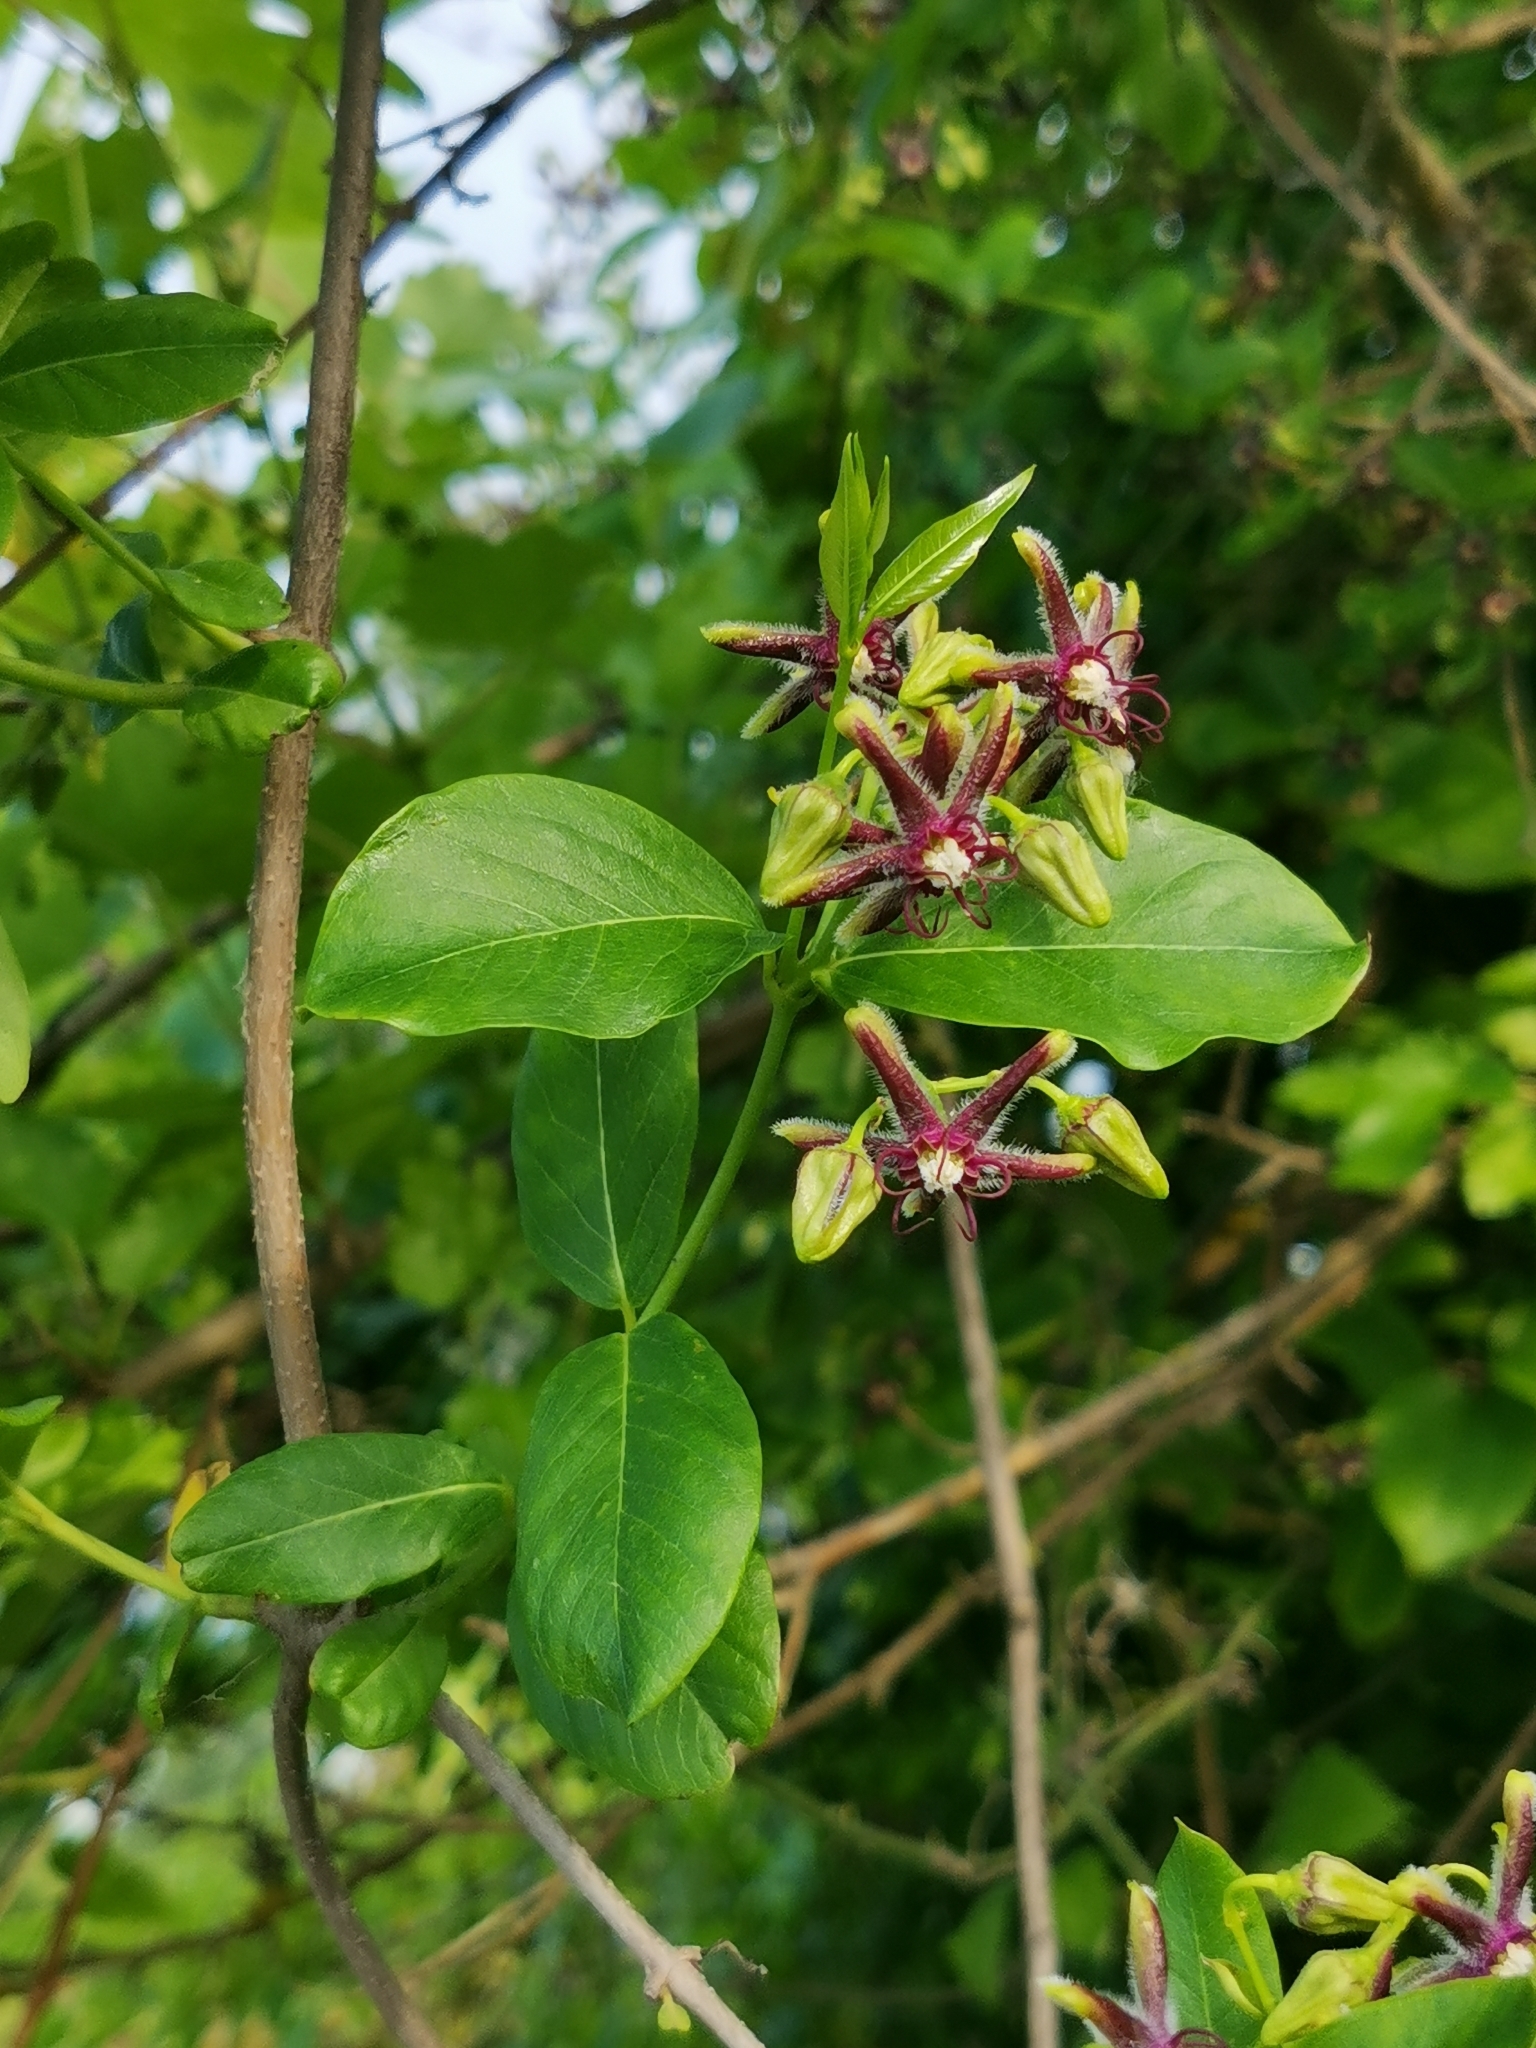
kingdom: Plantae
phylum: Tracheophyta
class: Magnoliopsida
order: Gentianales
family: Apocynaceae
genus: Periploca
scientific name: Periploca graeca
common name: Silkvine
